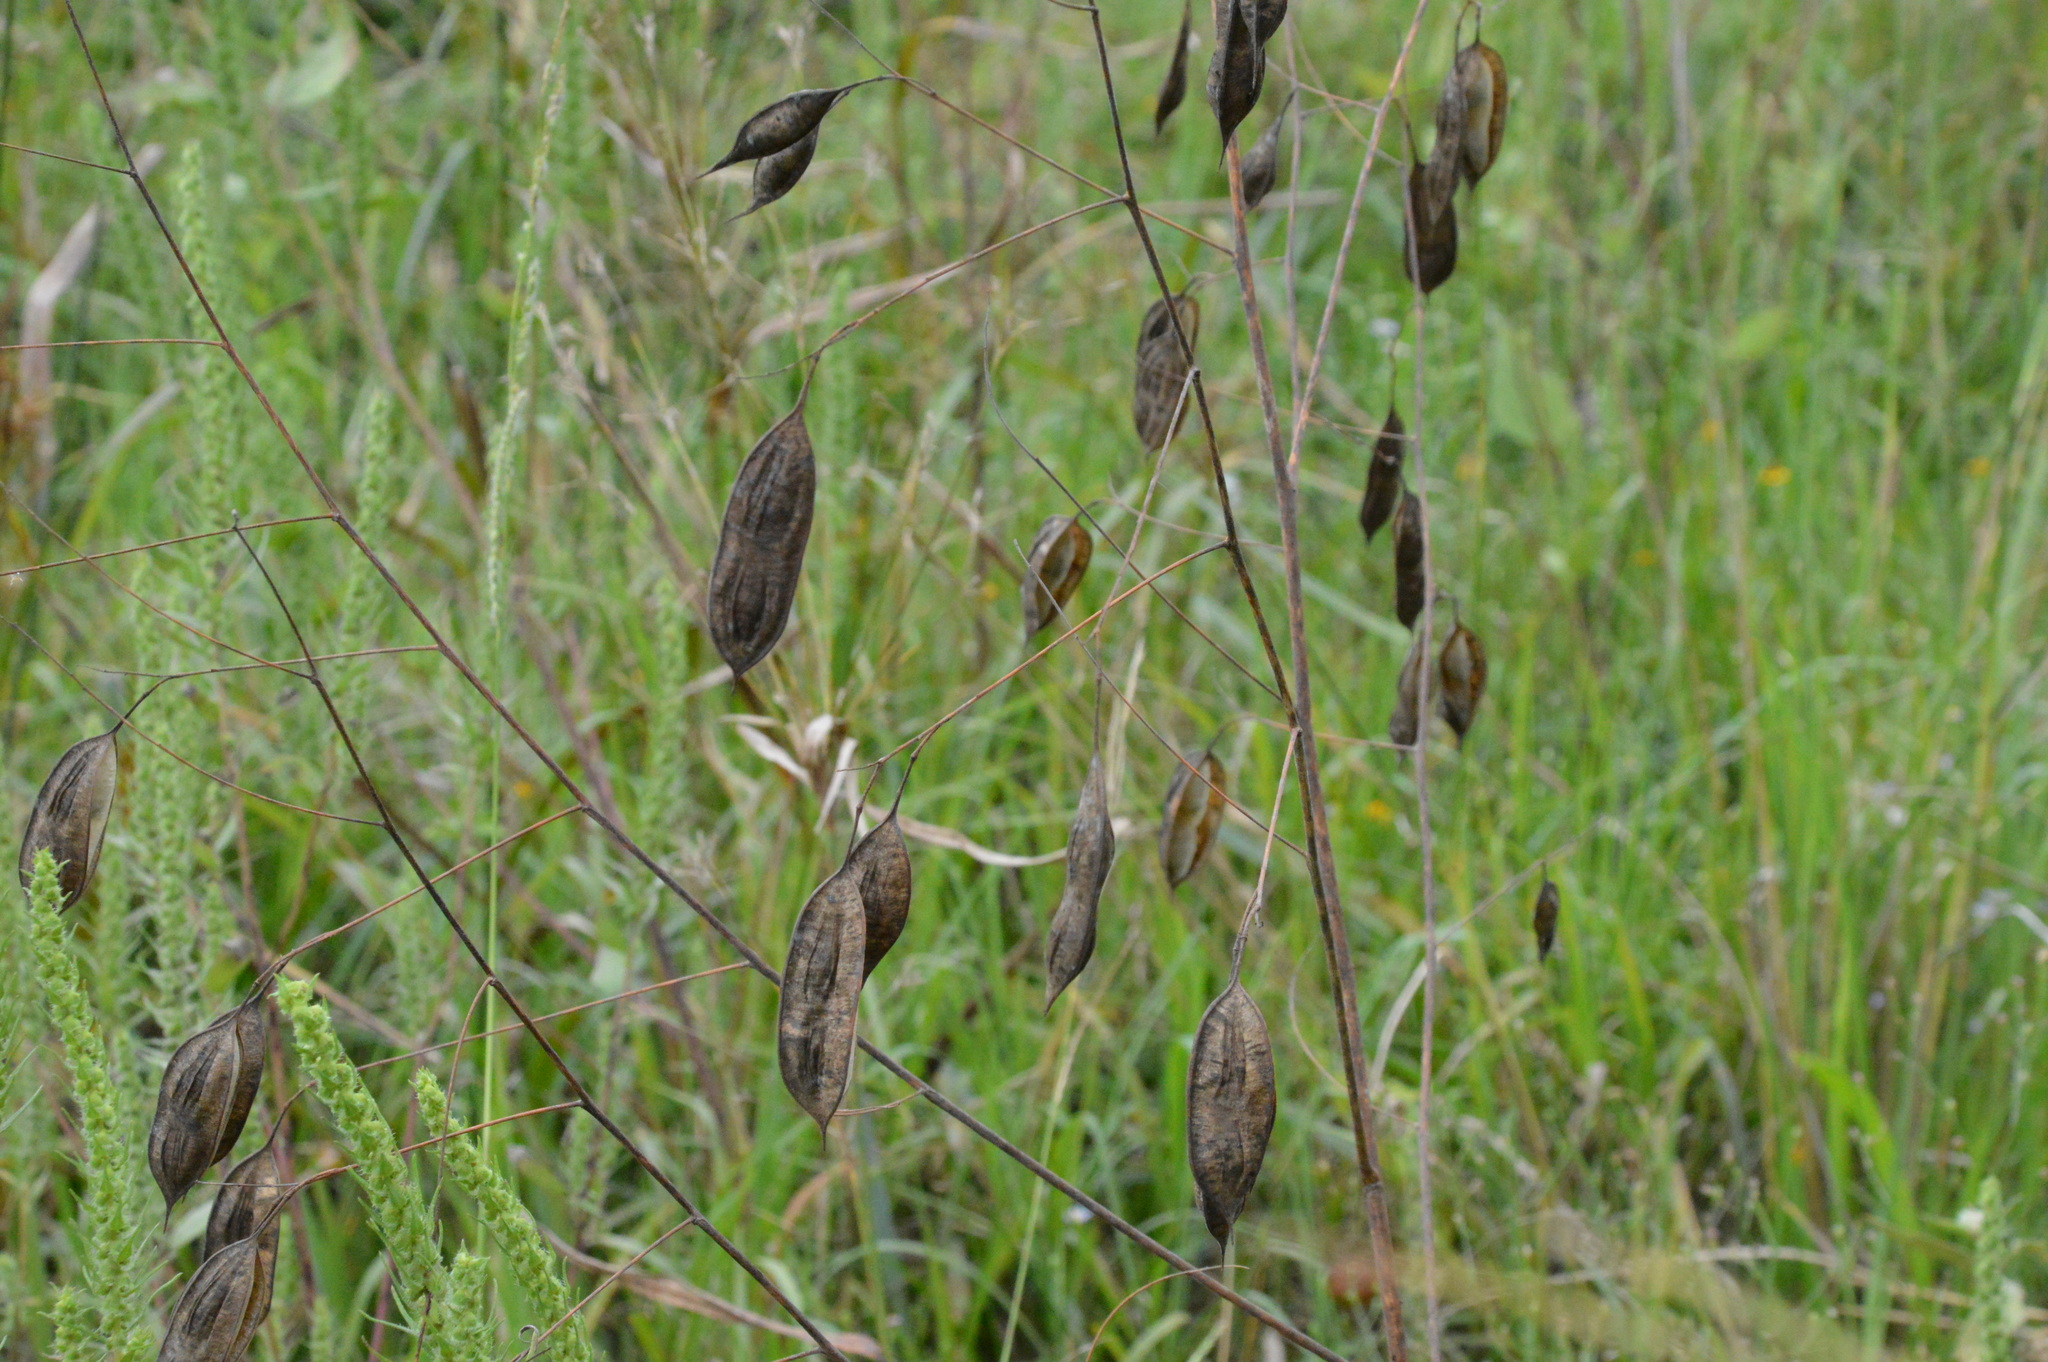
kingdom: Plantae
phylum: Tracheophyta
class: Magnoliopsida
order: Fabales
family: Fabaceae
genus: Sesbania
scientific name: Sesbania vesicaria
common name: Bagpod
